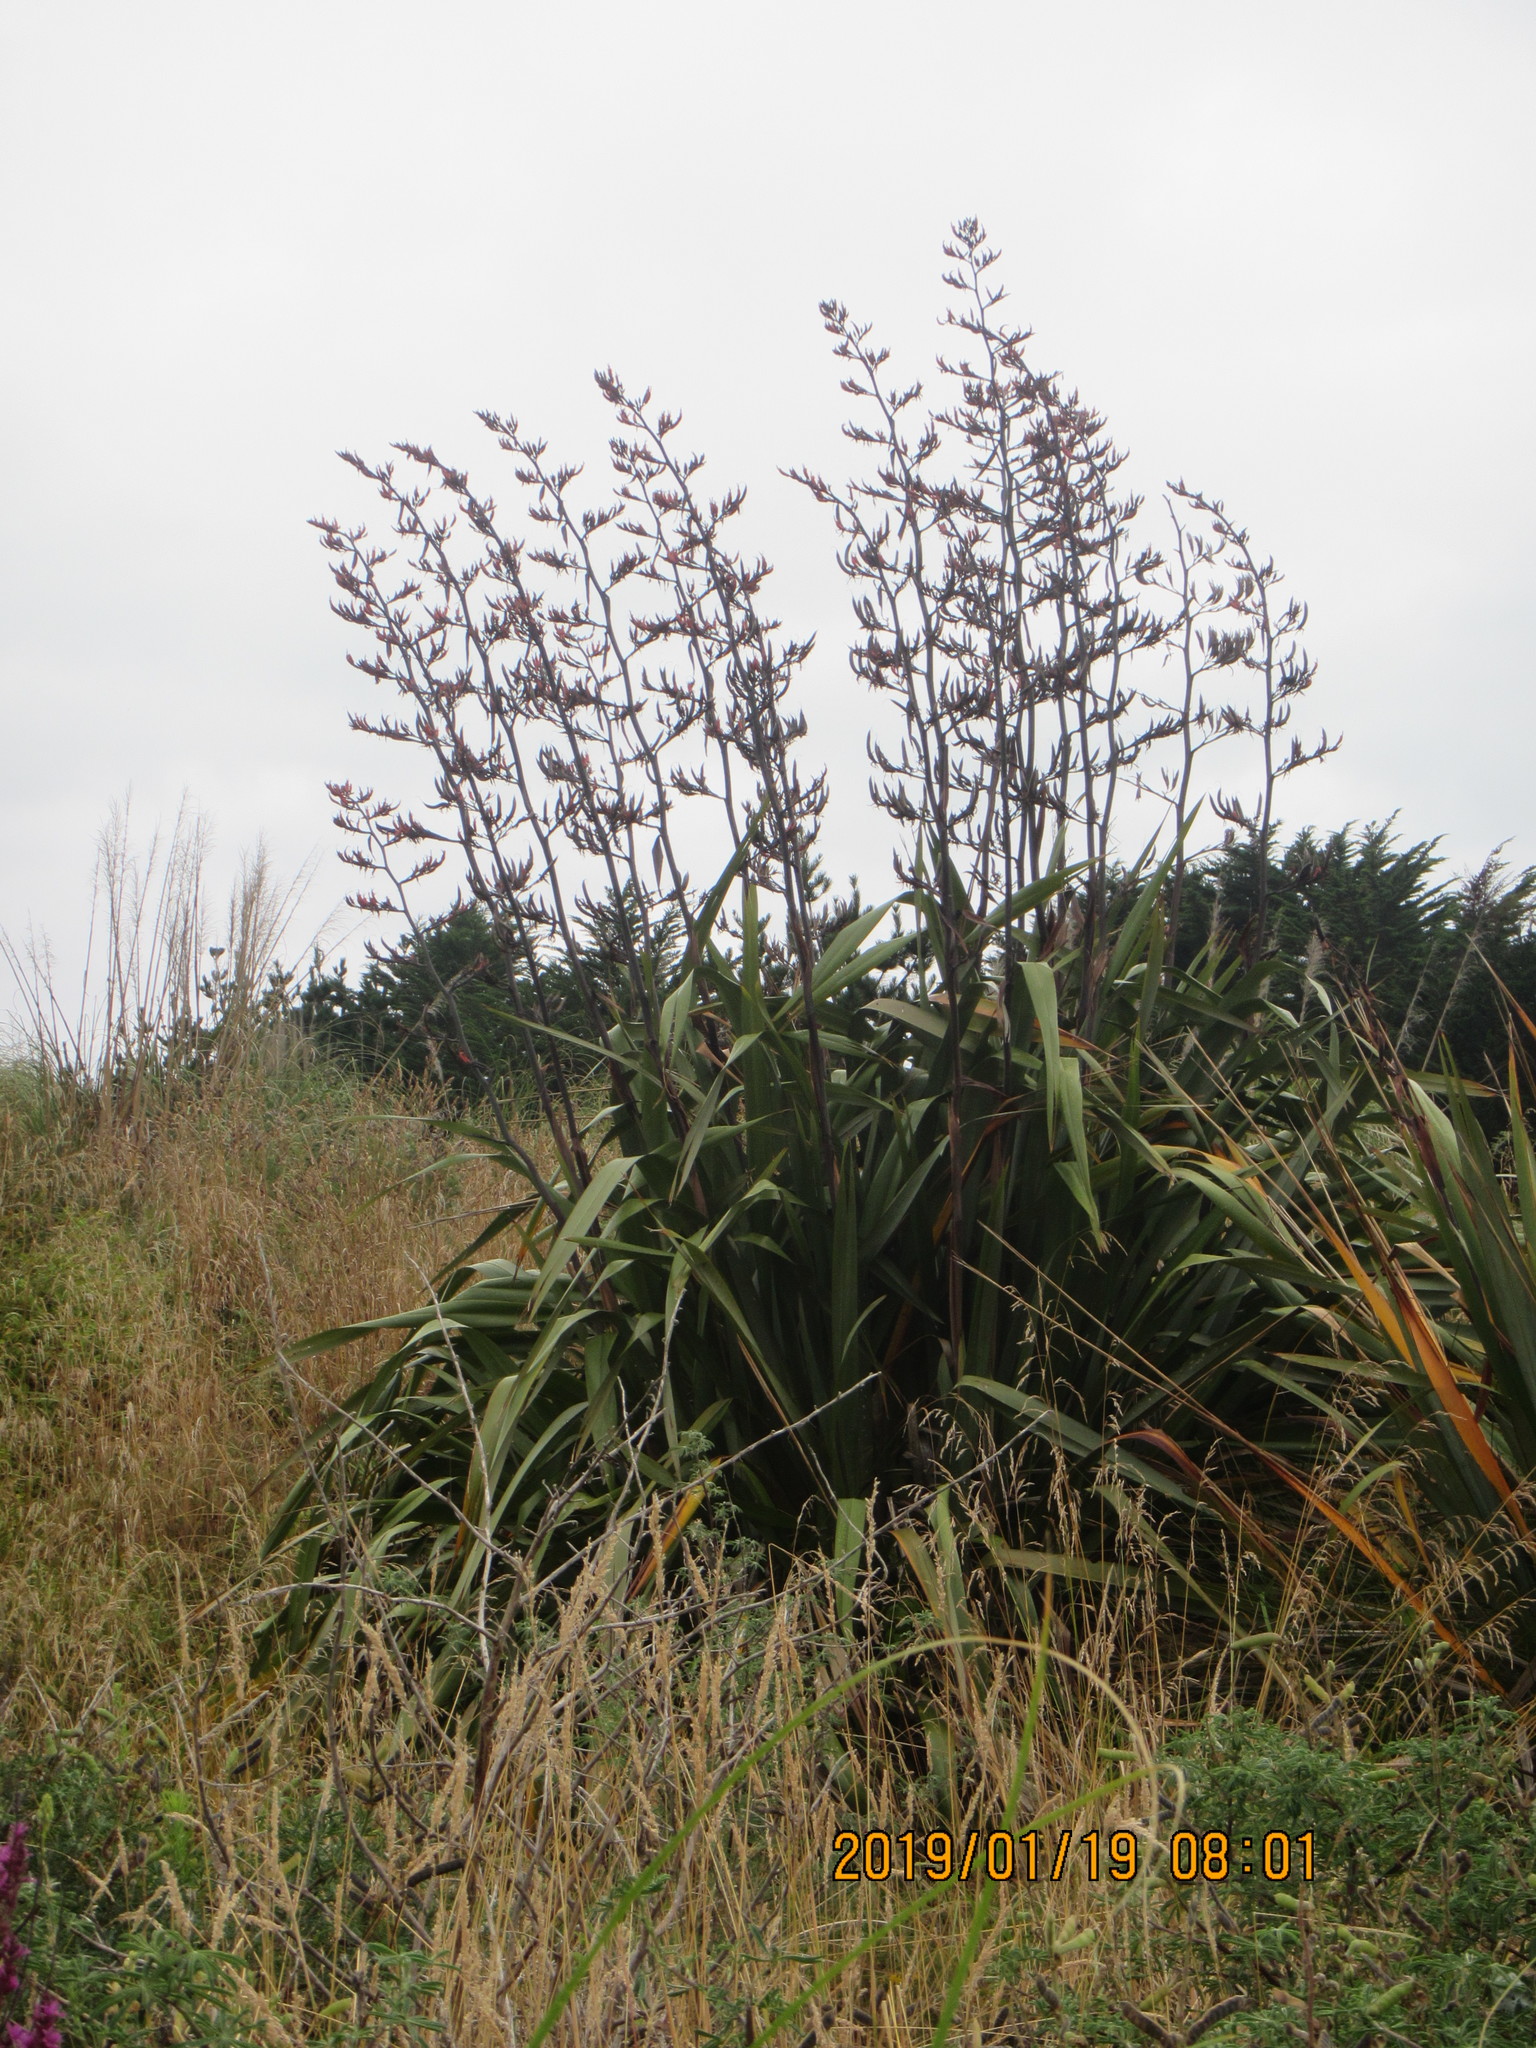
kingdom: Plantae
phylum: Tracheophyta
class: Liliopsida
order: Asparagales
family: Asphodelaceae
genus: Phormium
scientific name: Phormium tenax
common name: New zealand flax
